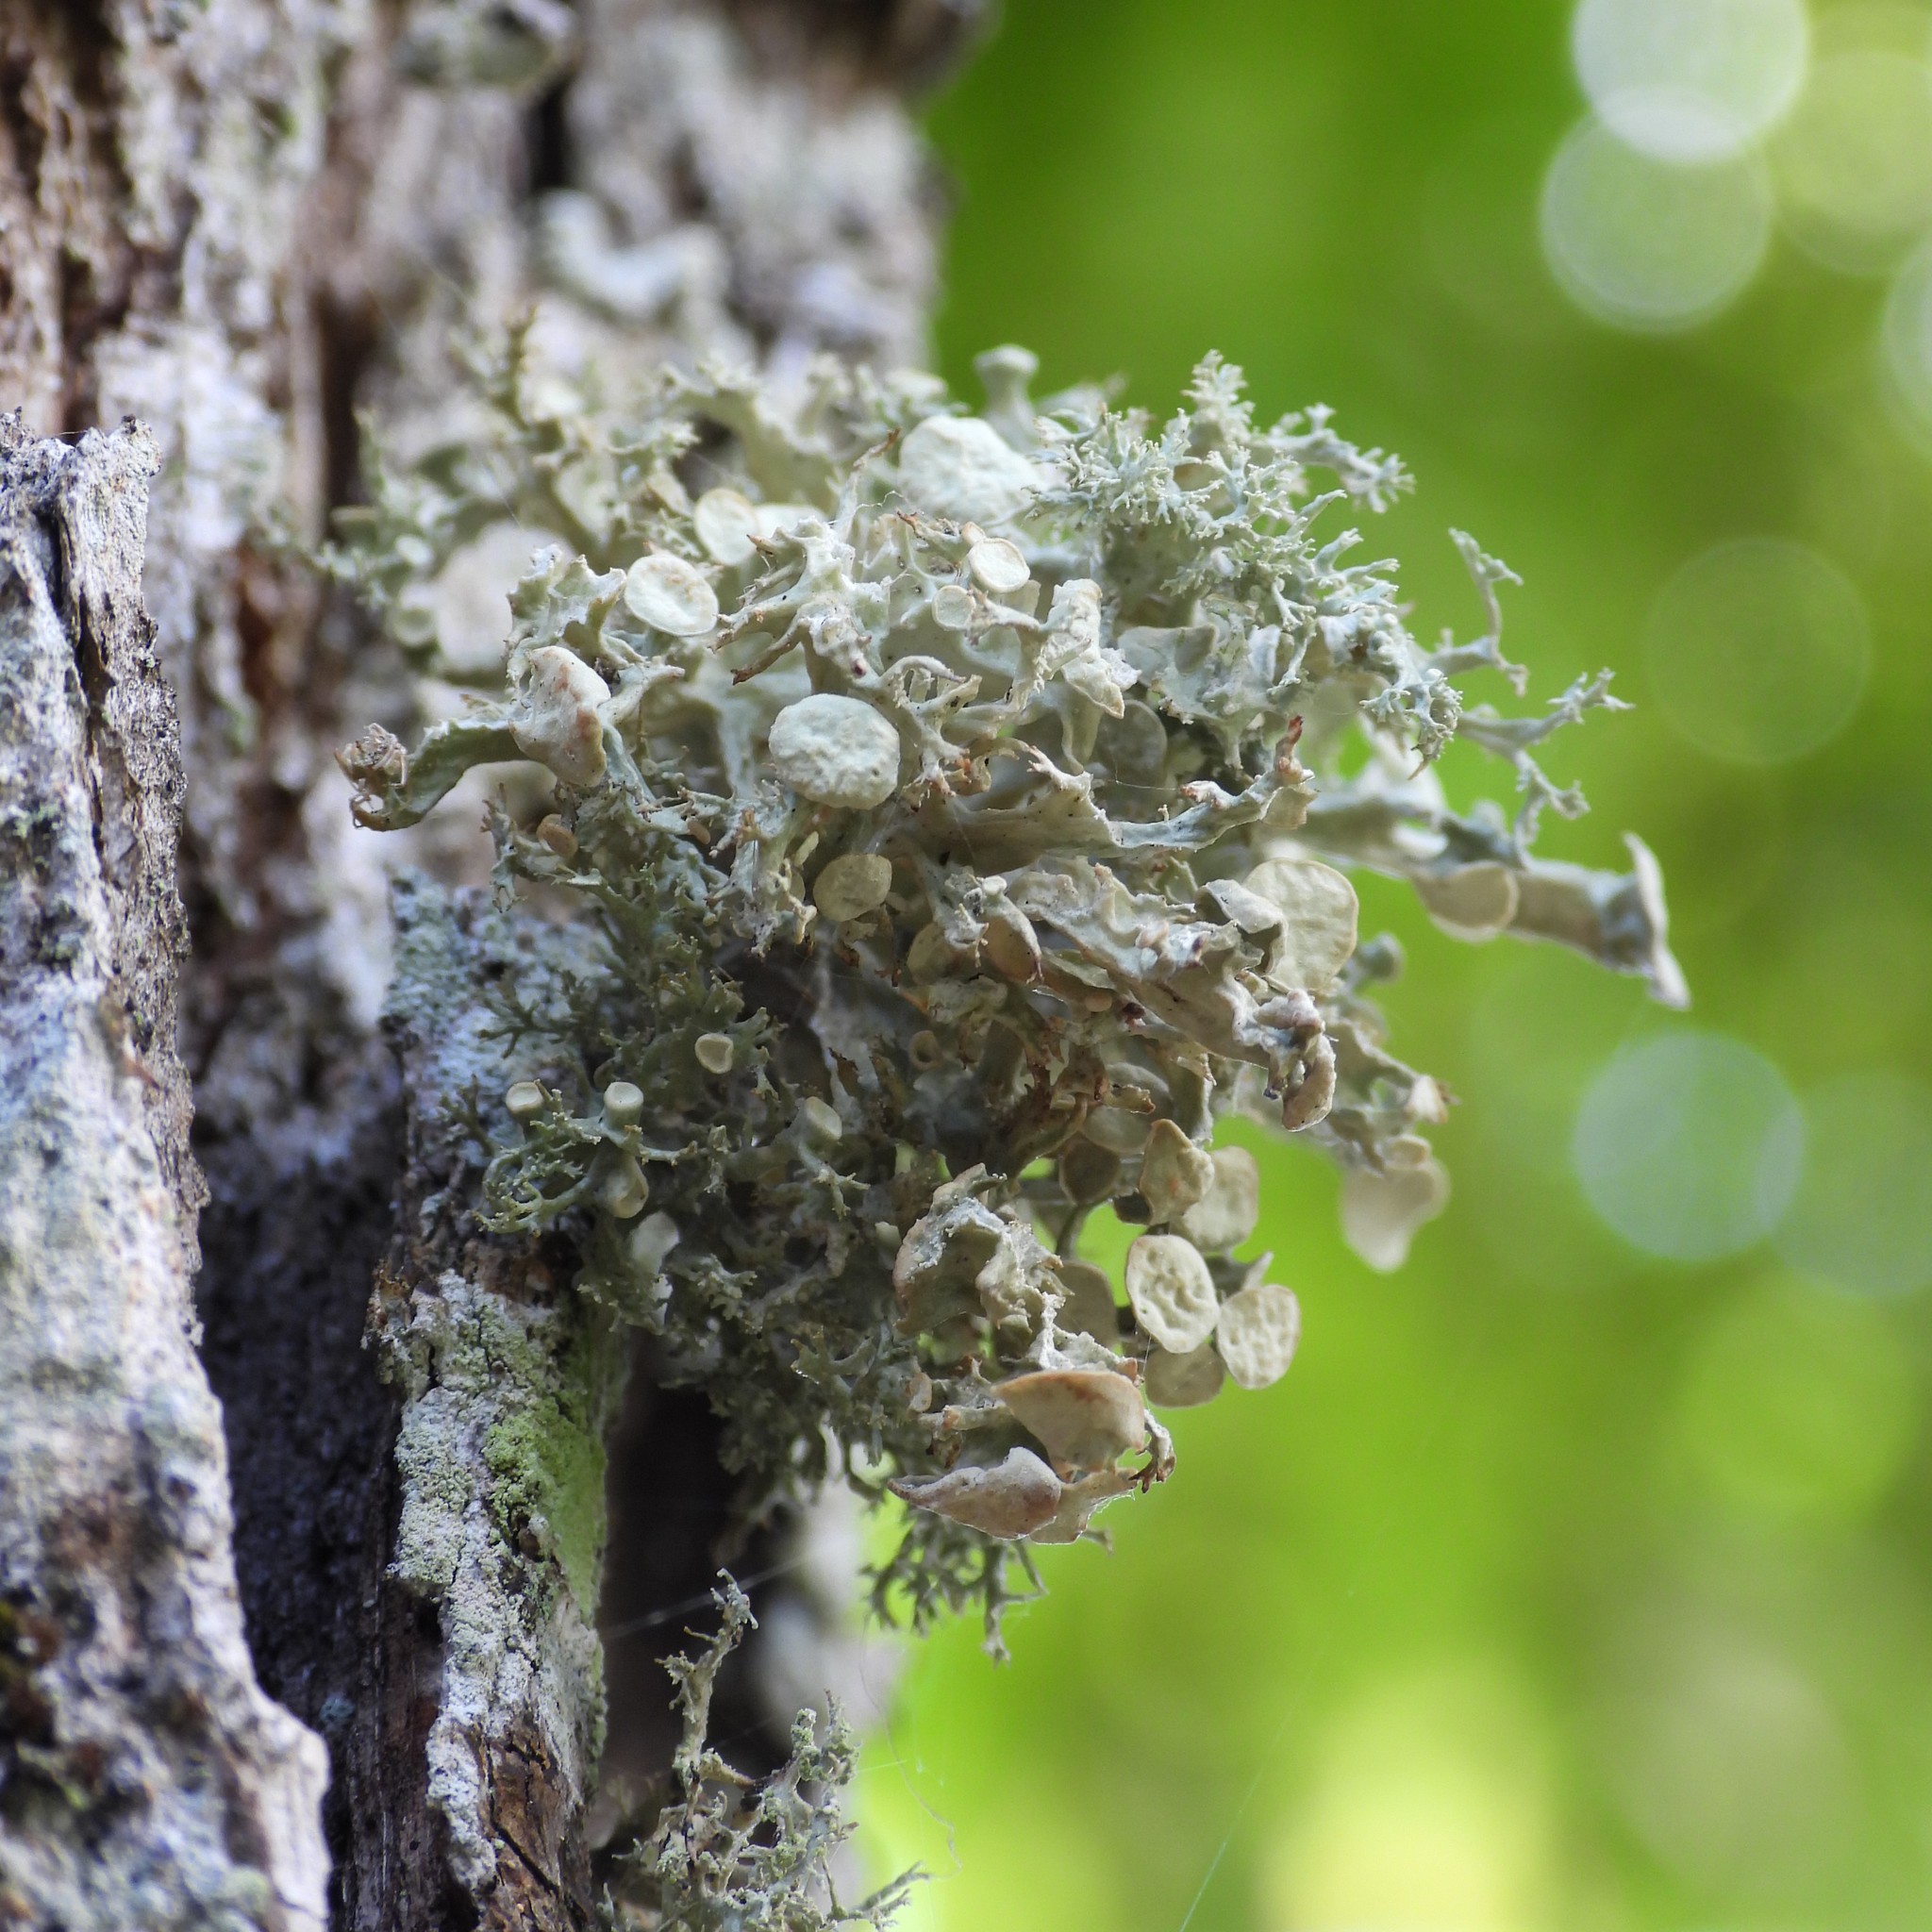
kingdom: Fungi
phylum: Ascomycota
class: Lecanoromycetes
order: Lecanorales
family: Ramalinaceae
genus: Ramalina
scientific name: Ramalina fastigiata
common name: Dotted ribbon lichen
